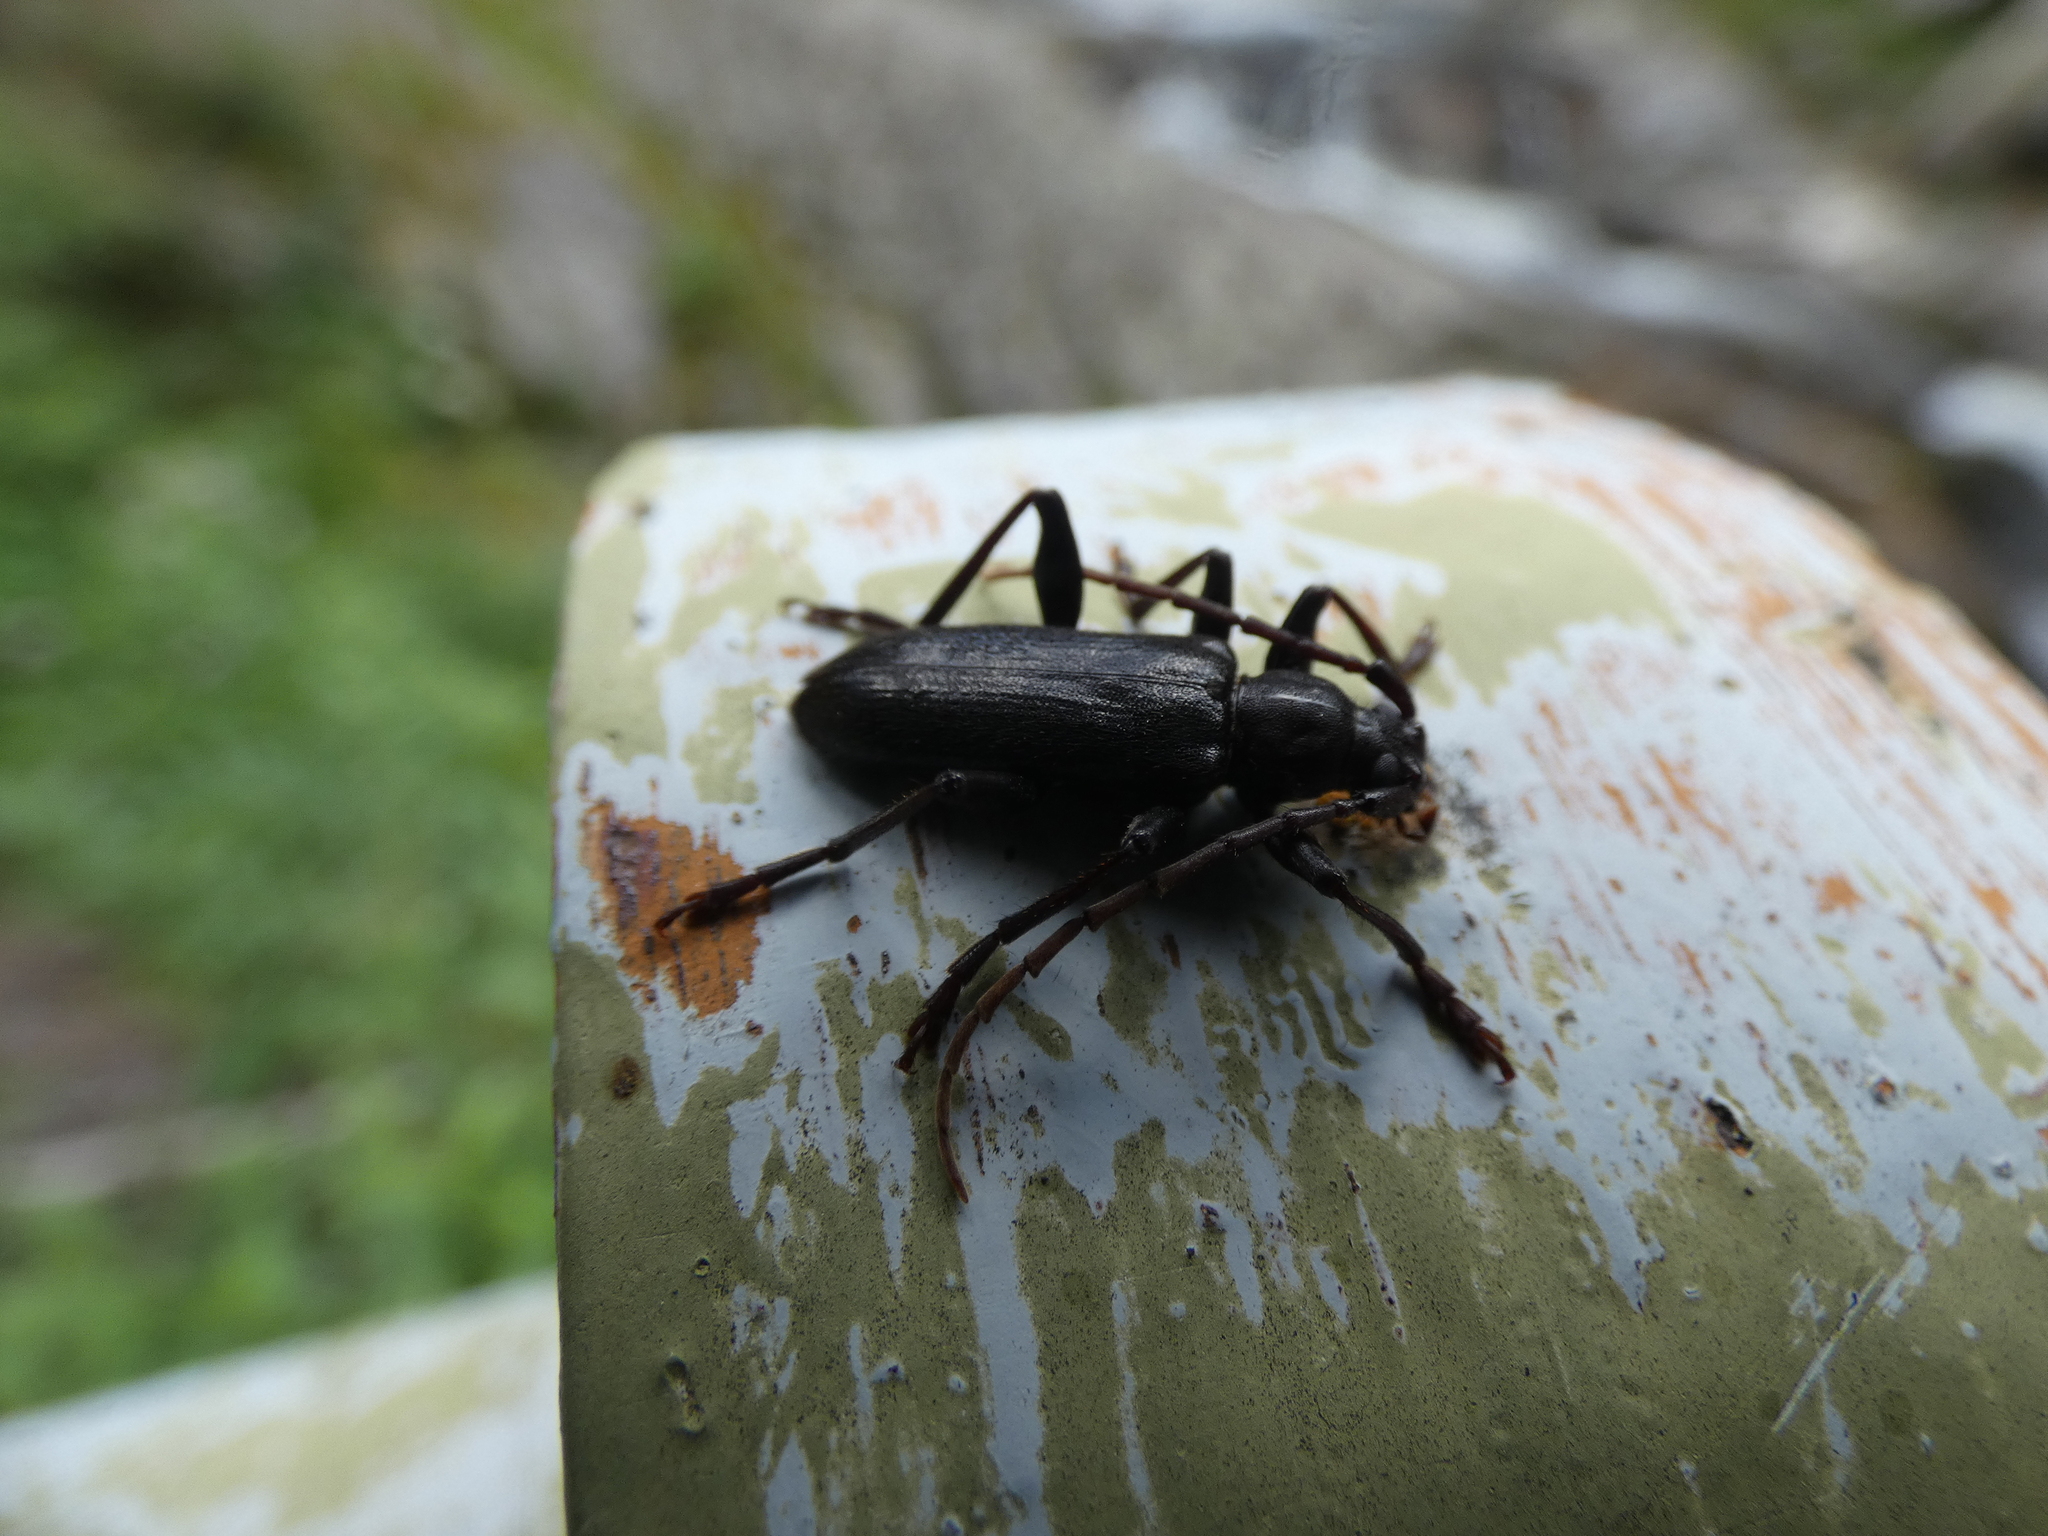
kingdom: Animalia
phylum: Arthropoda
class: Insecta
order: Coleoptera
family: Cerambycidae
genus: Saphanus
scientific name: Saphanus piceus
